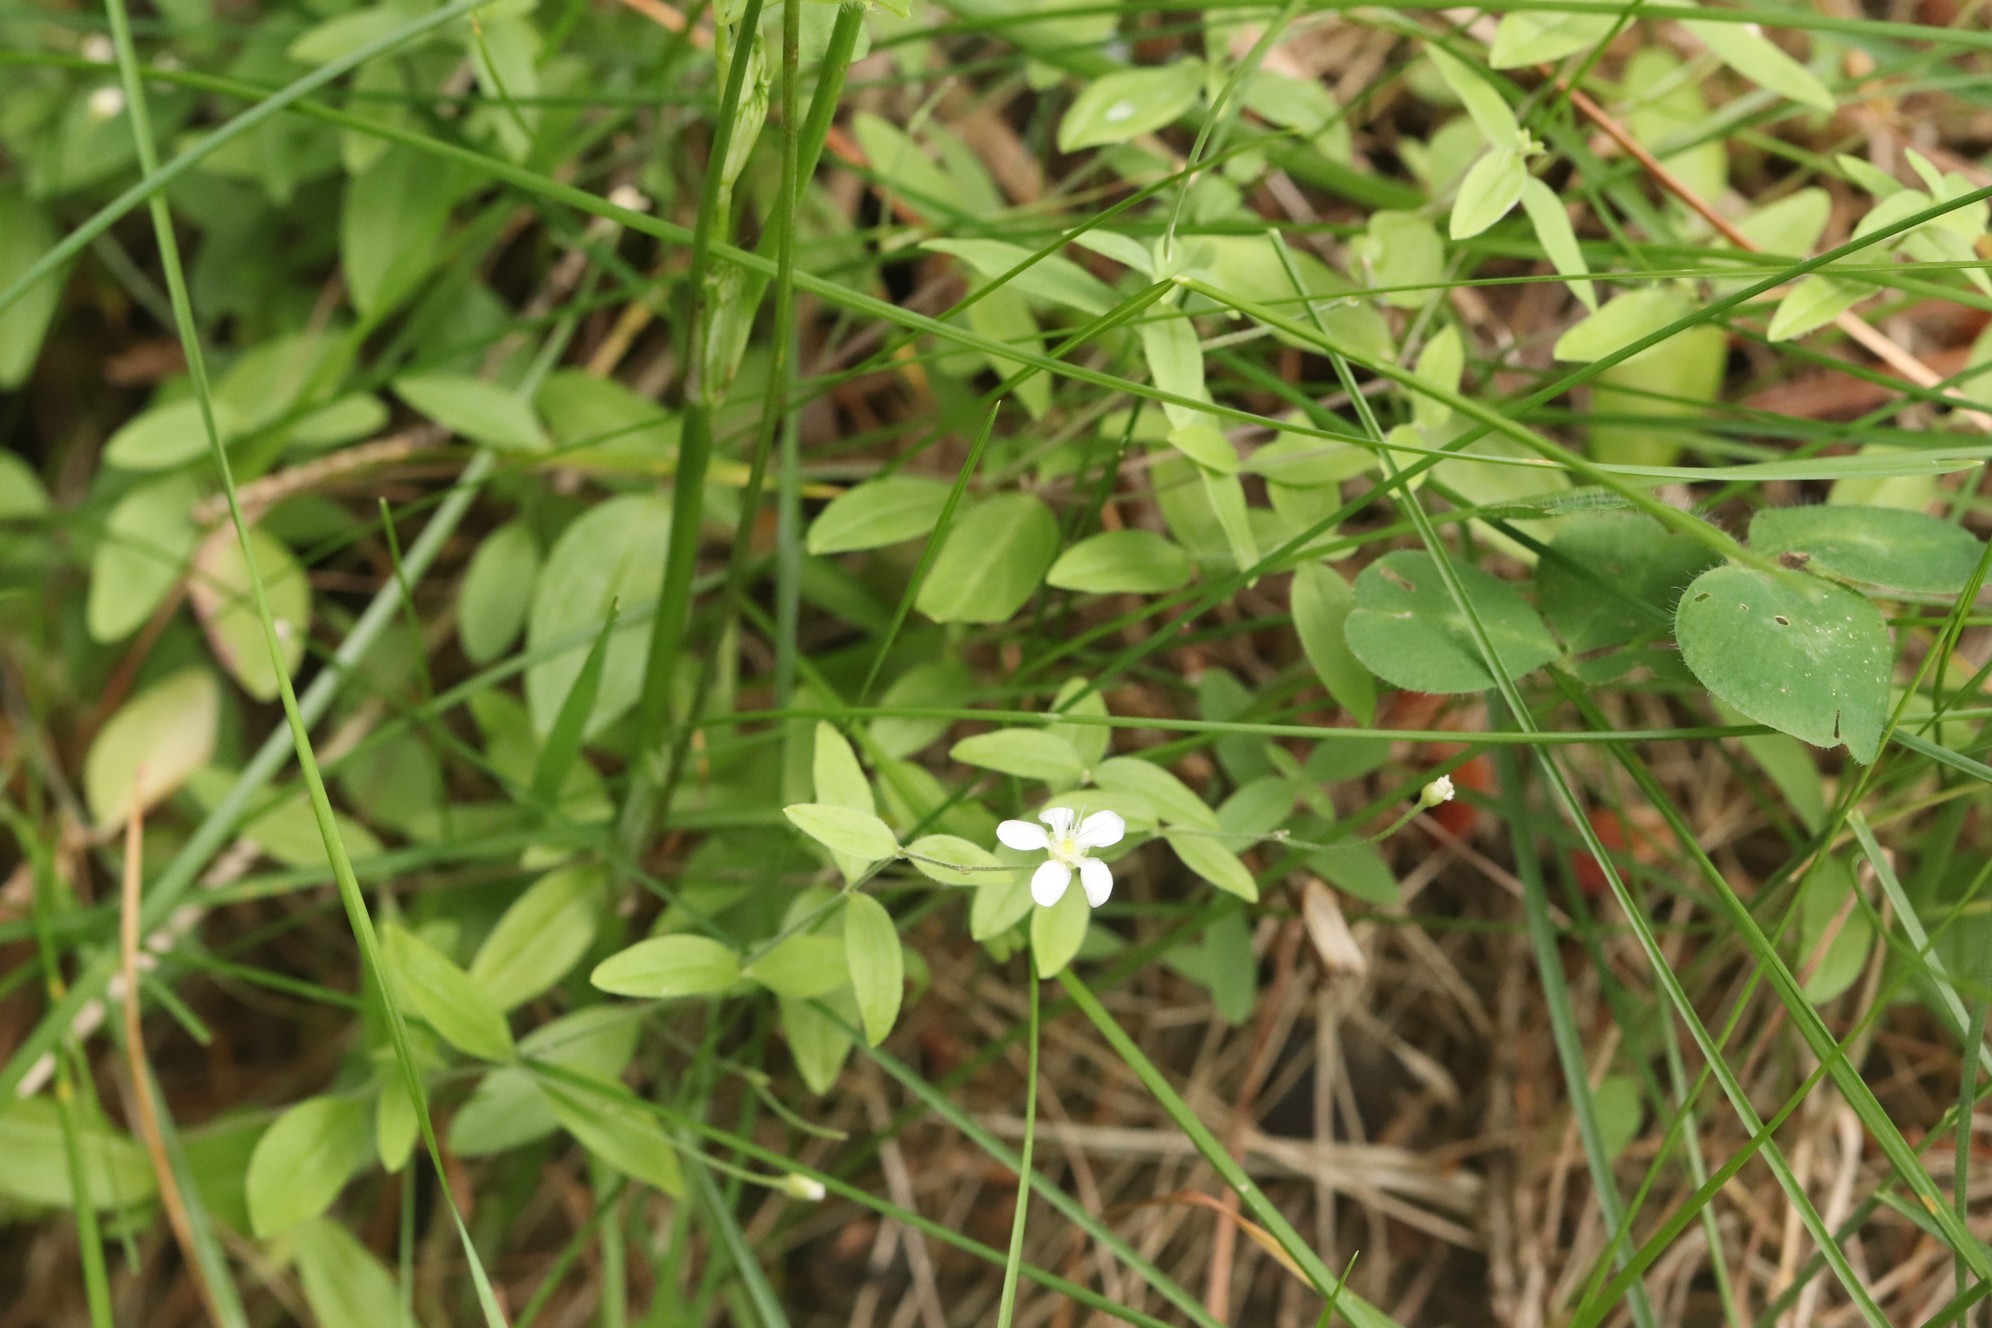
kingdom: Plantae
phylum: Tracheophyta
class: Magnoliopsida
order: Caryophyllales
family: Caryophyllaceae
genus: Moehringia
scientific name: Moehringia lateriflora
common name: Blunt-leaved sandwort
